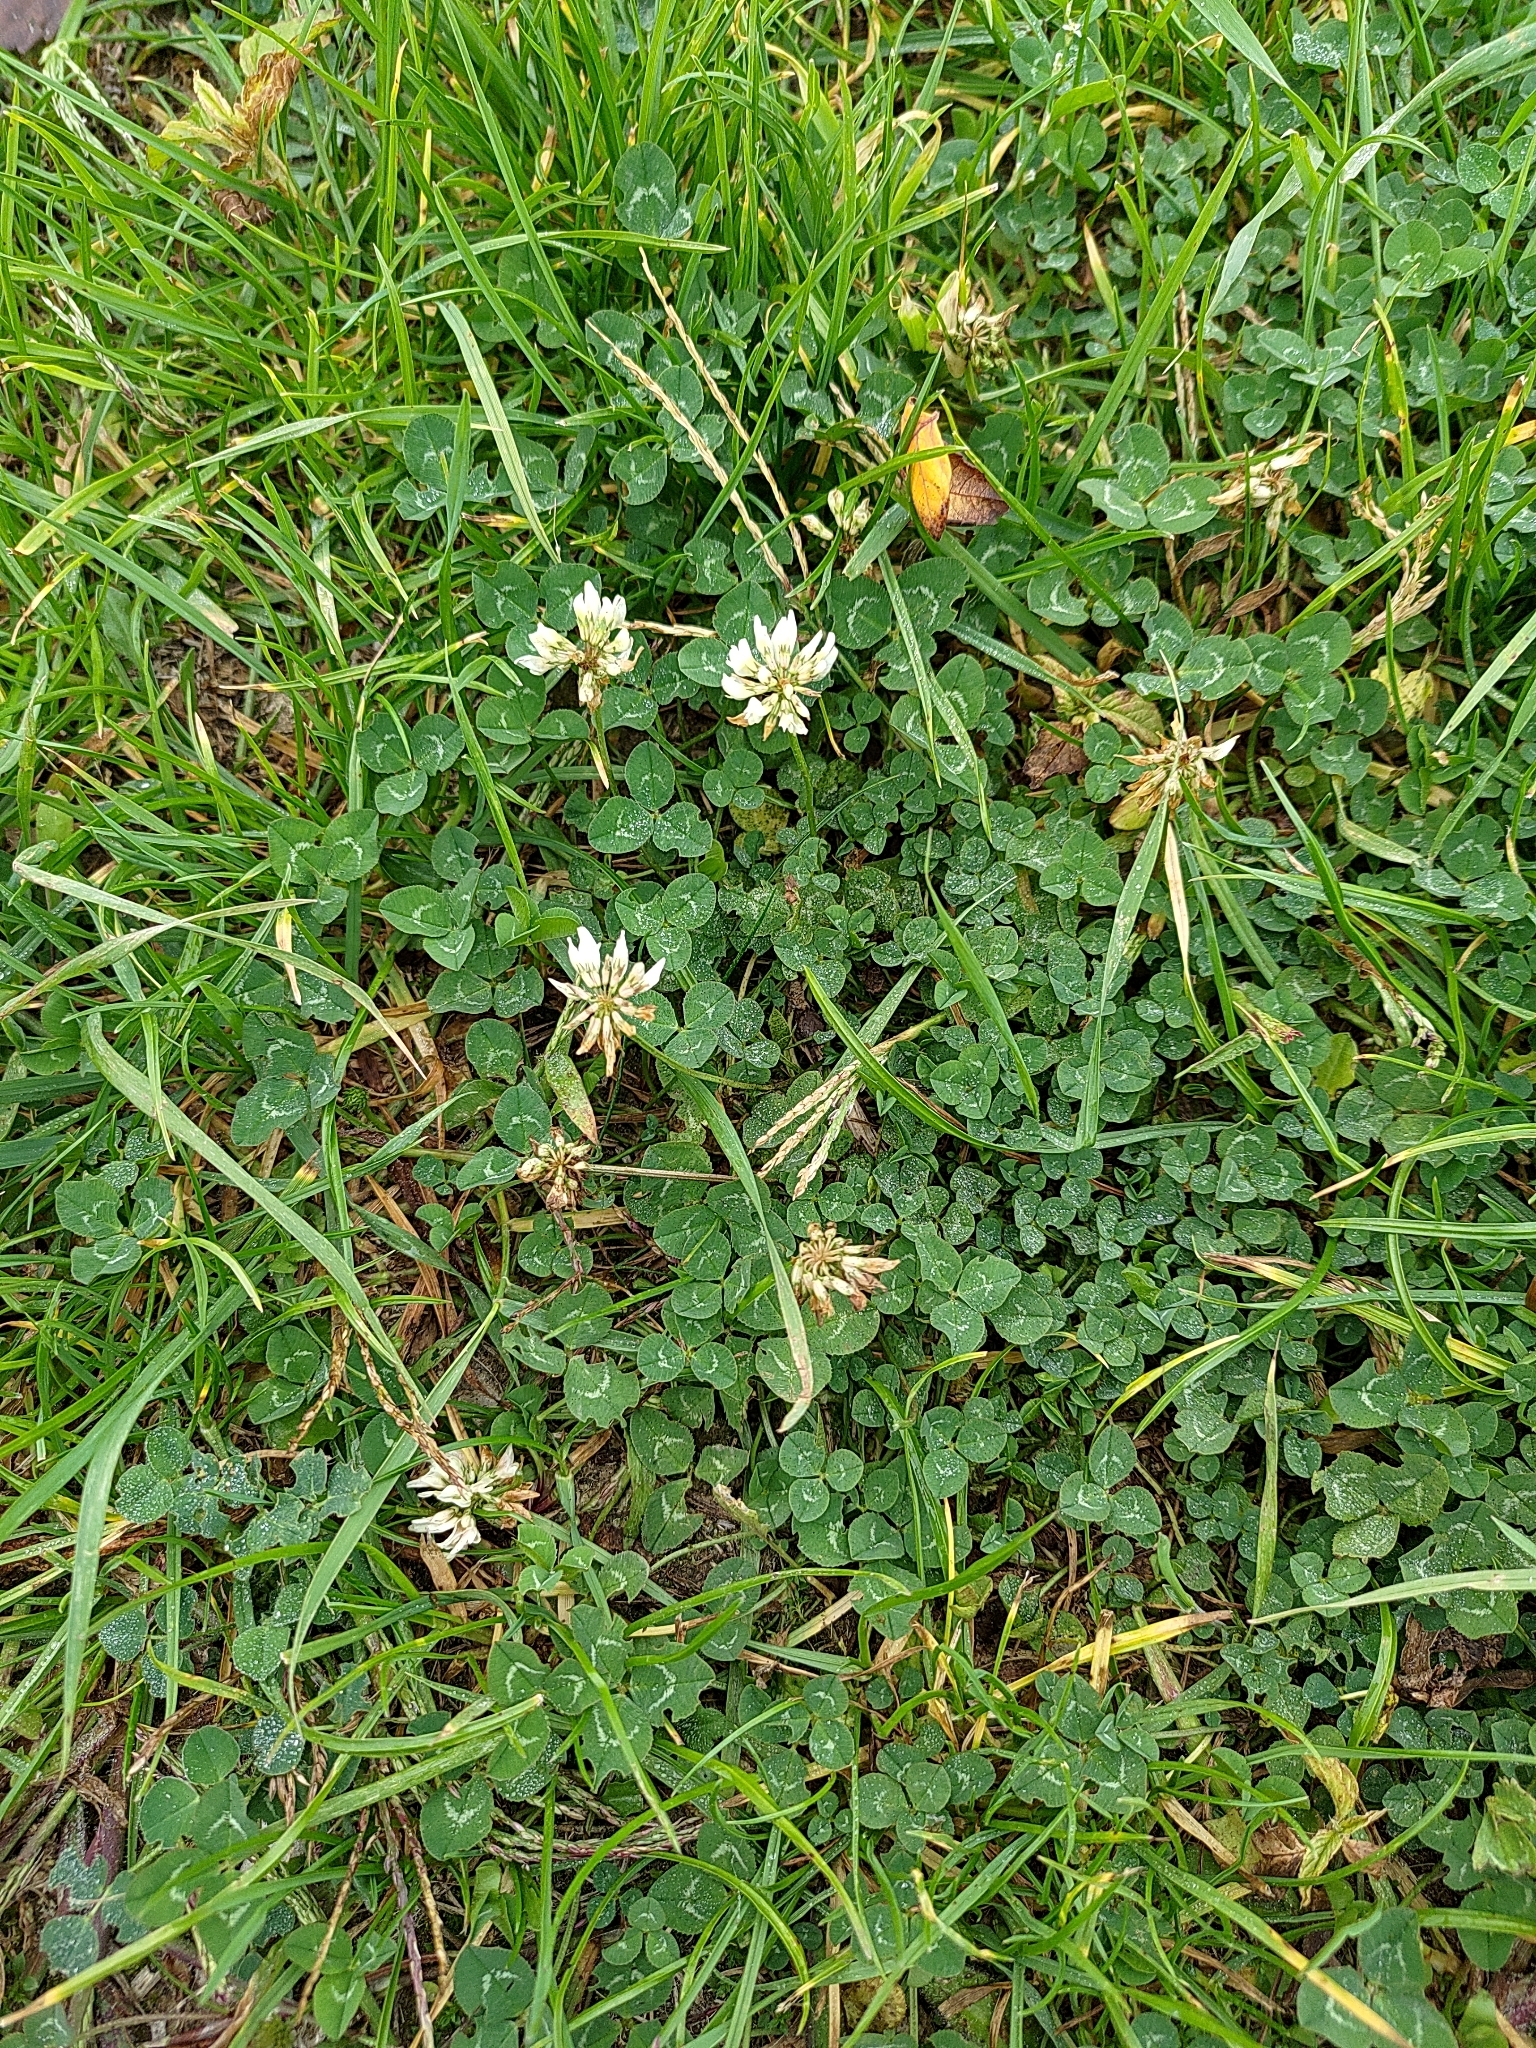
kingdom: Plantae
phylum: Tracheophyta
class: Magnoliopsida
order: Fabales
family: Fabaceae
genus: Trifolium
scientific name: Trifolium repens
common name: White clover
